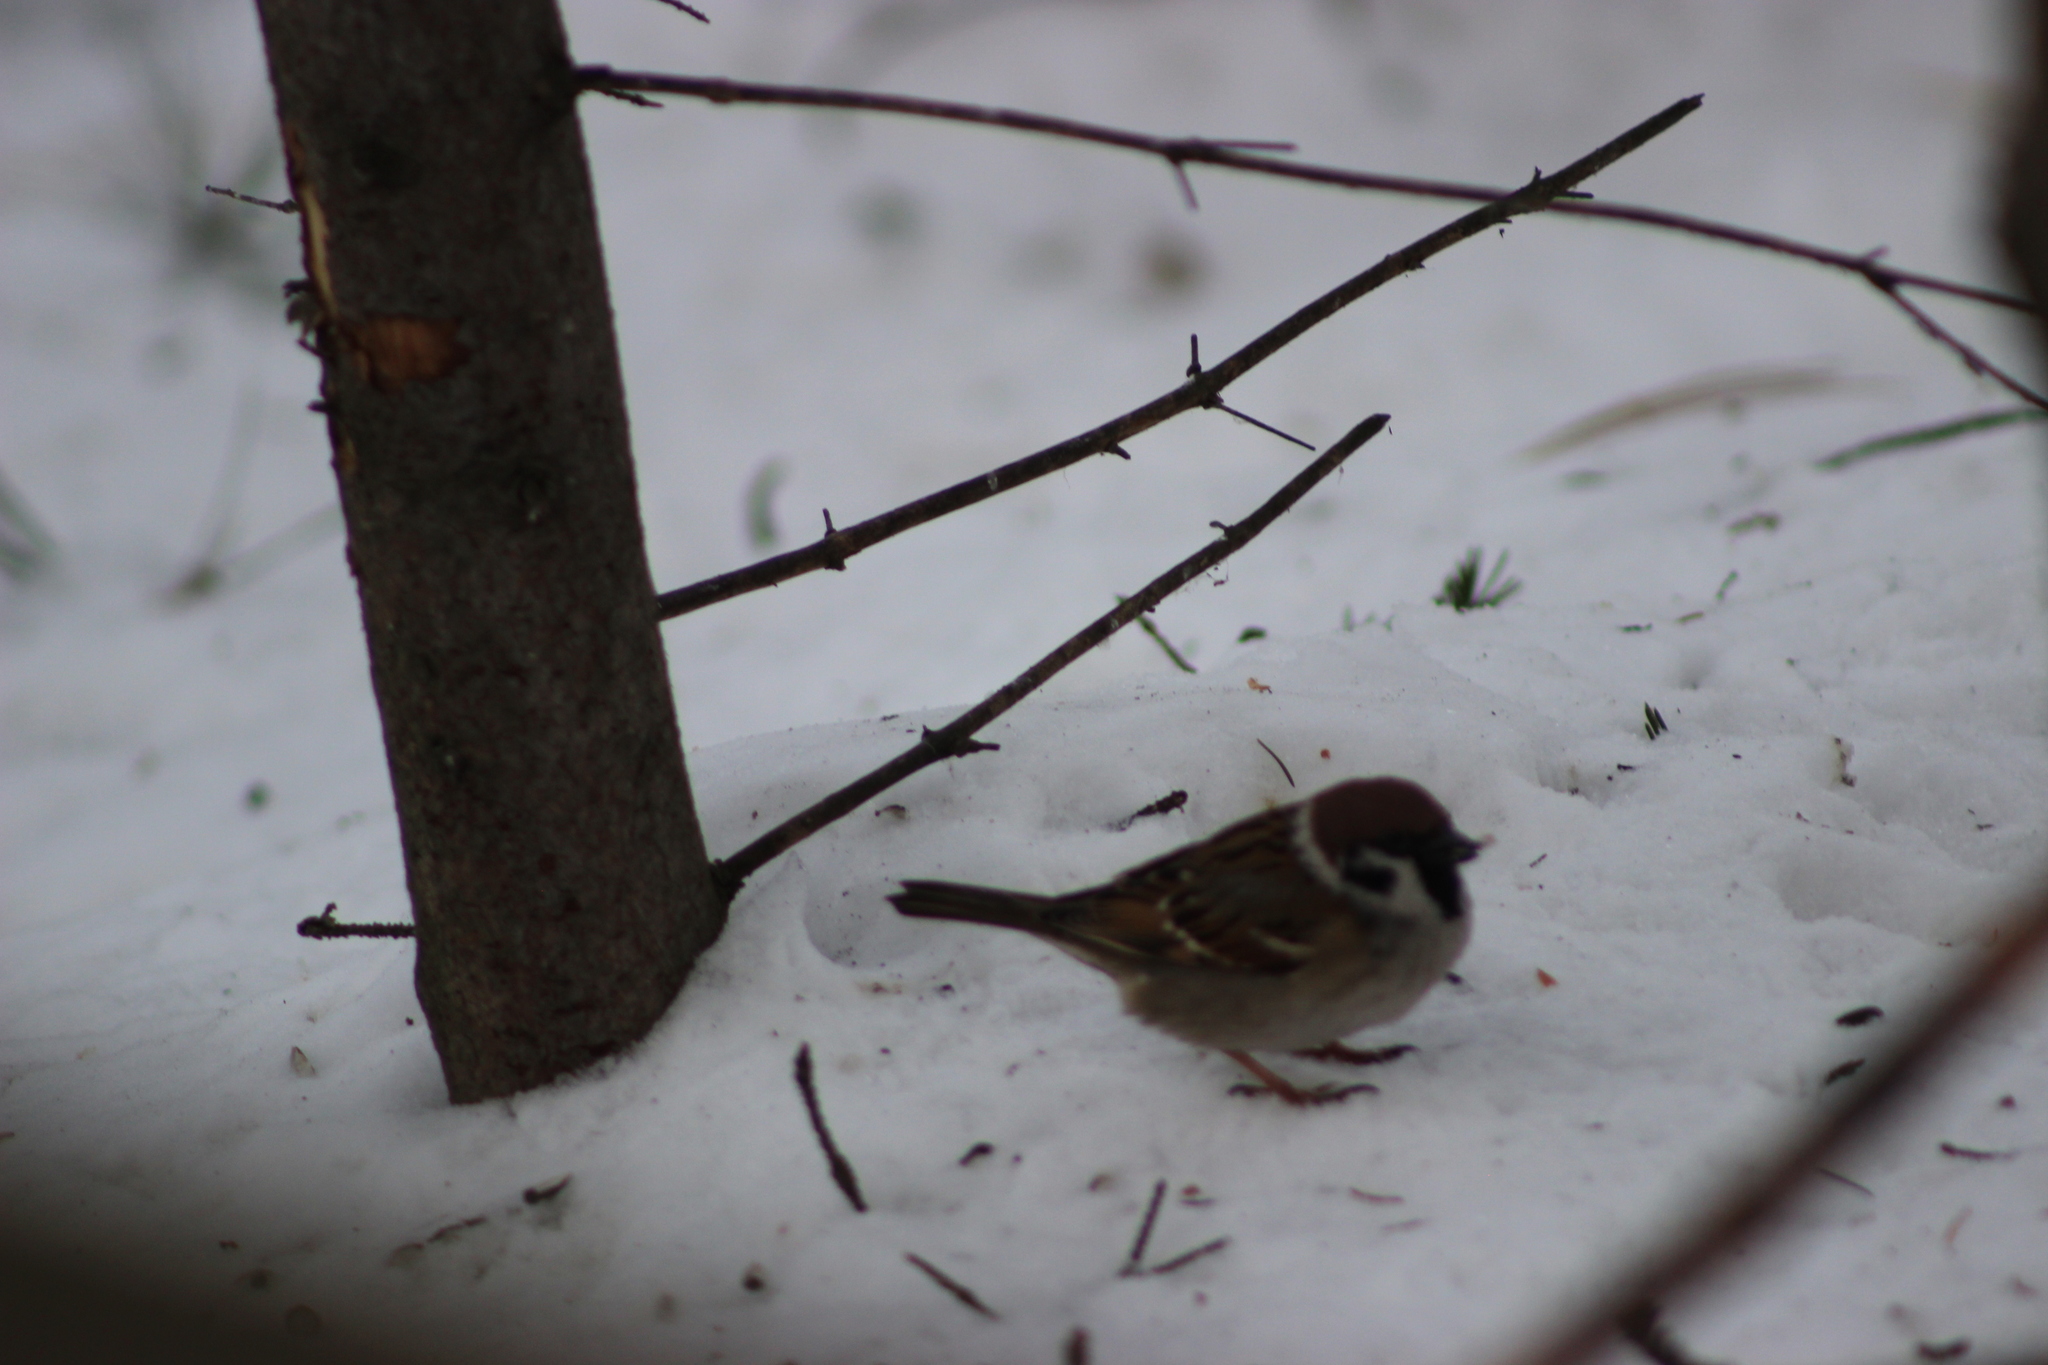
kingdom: Animalia
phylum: Chordata
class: Aves
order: Passeriformes
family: Passeridae
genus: Passer
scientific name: Passer montanus
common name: Eurasian tree sparrow
